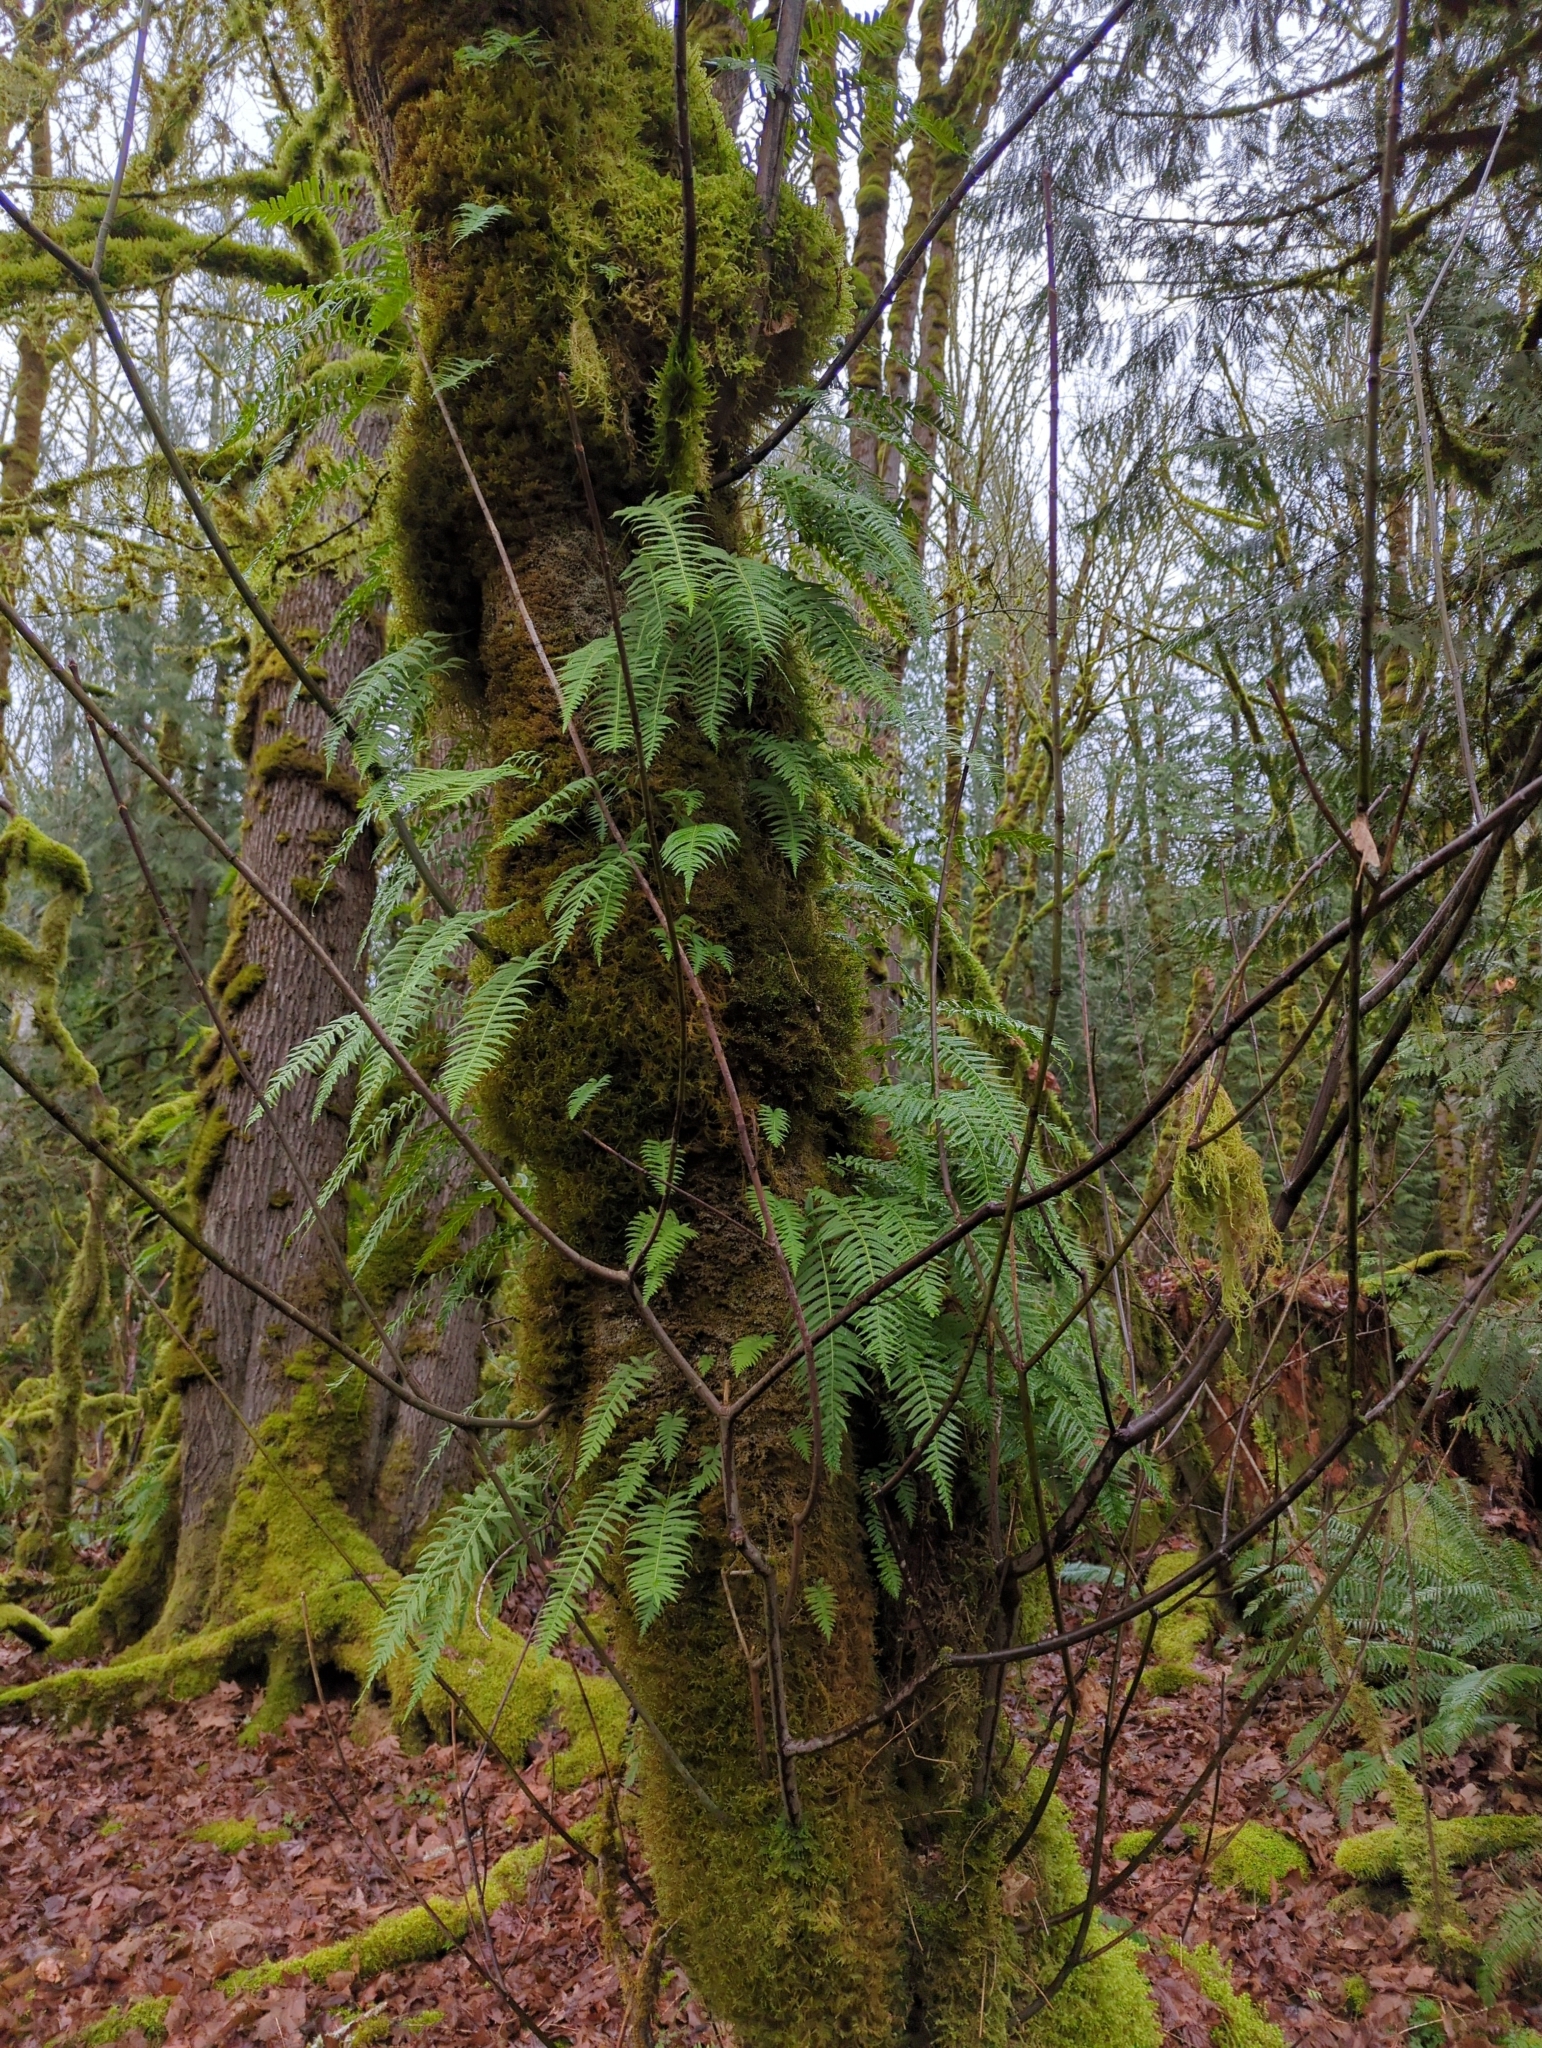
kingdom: Plantae
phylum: Tracheophyta
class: Polypodiopsida
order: Polypodiales
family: Polypodiaceae
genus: Polypodium
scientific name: Polypodium glycyrrhiza
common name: Licorice fern
